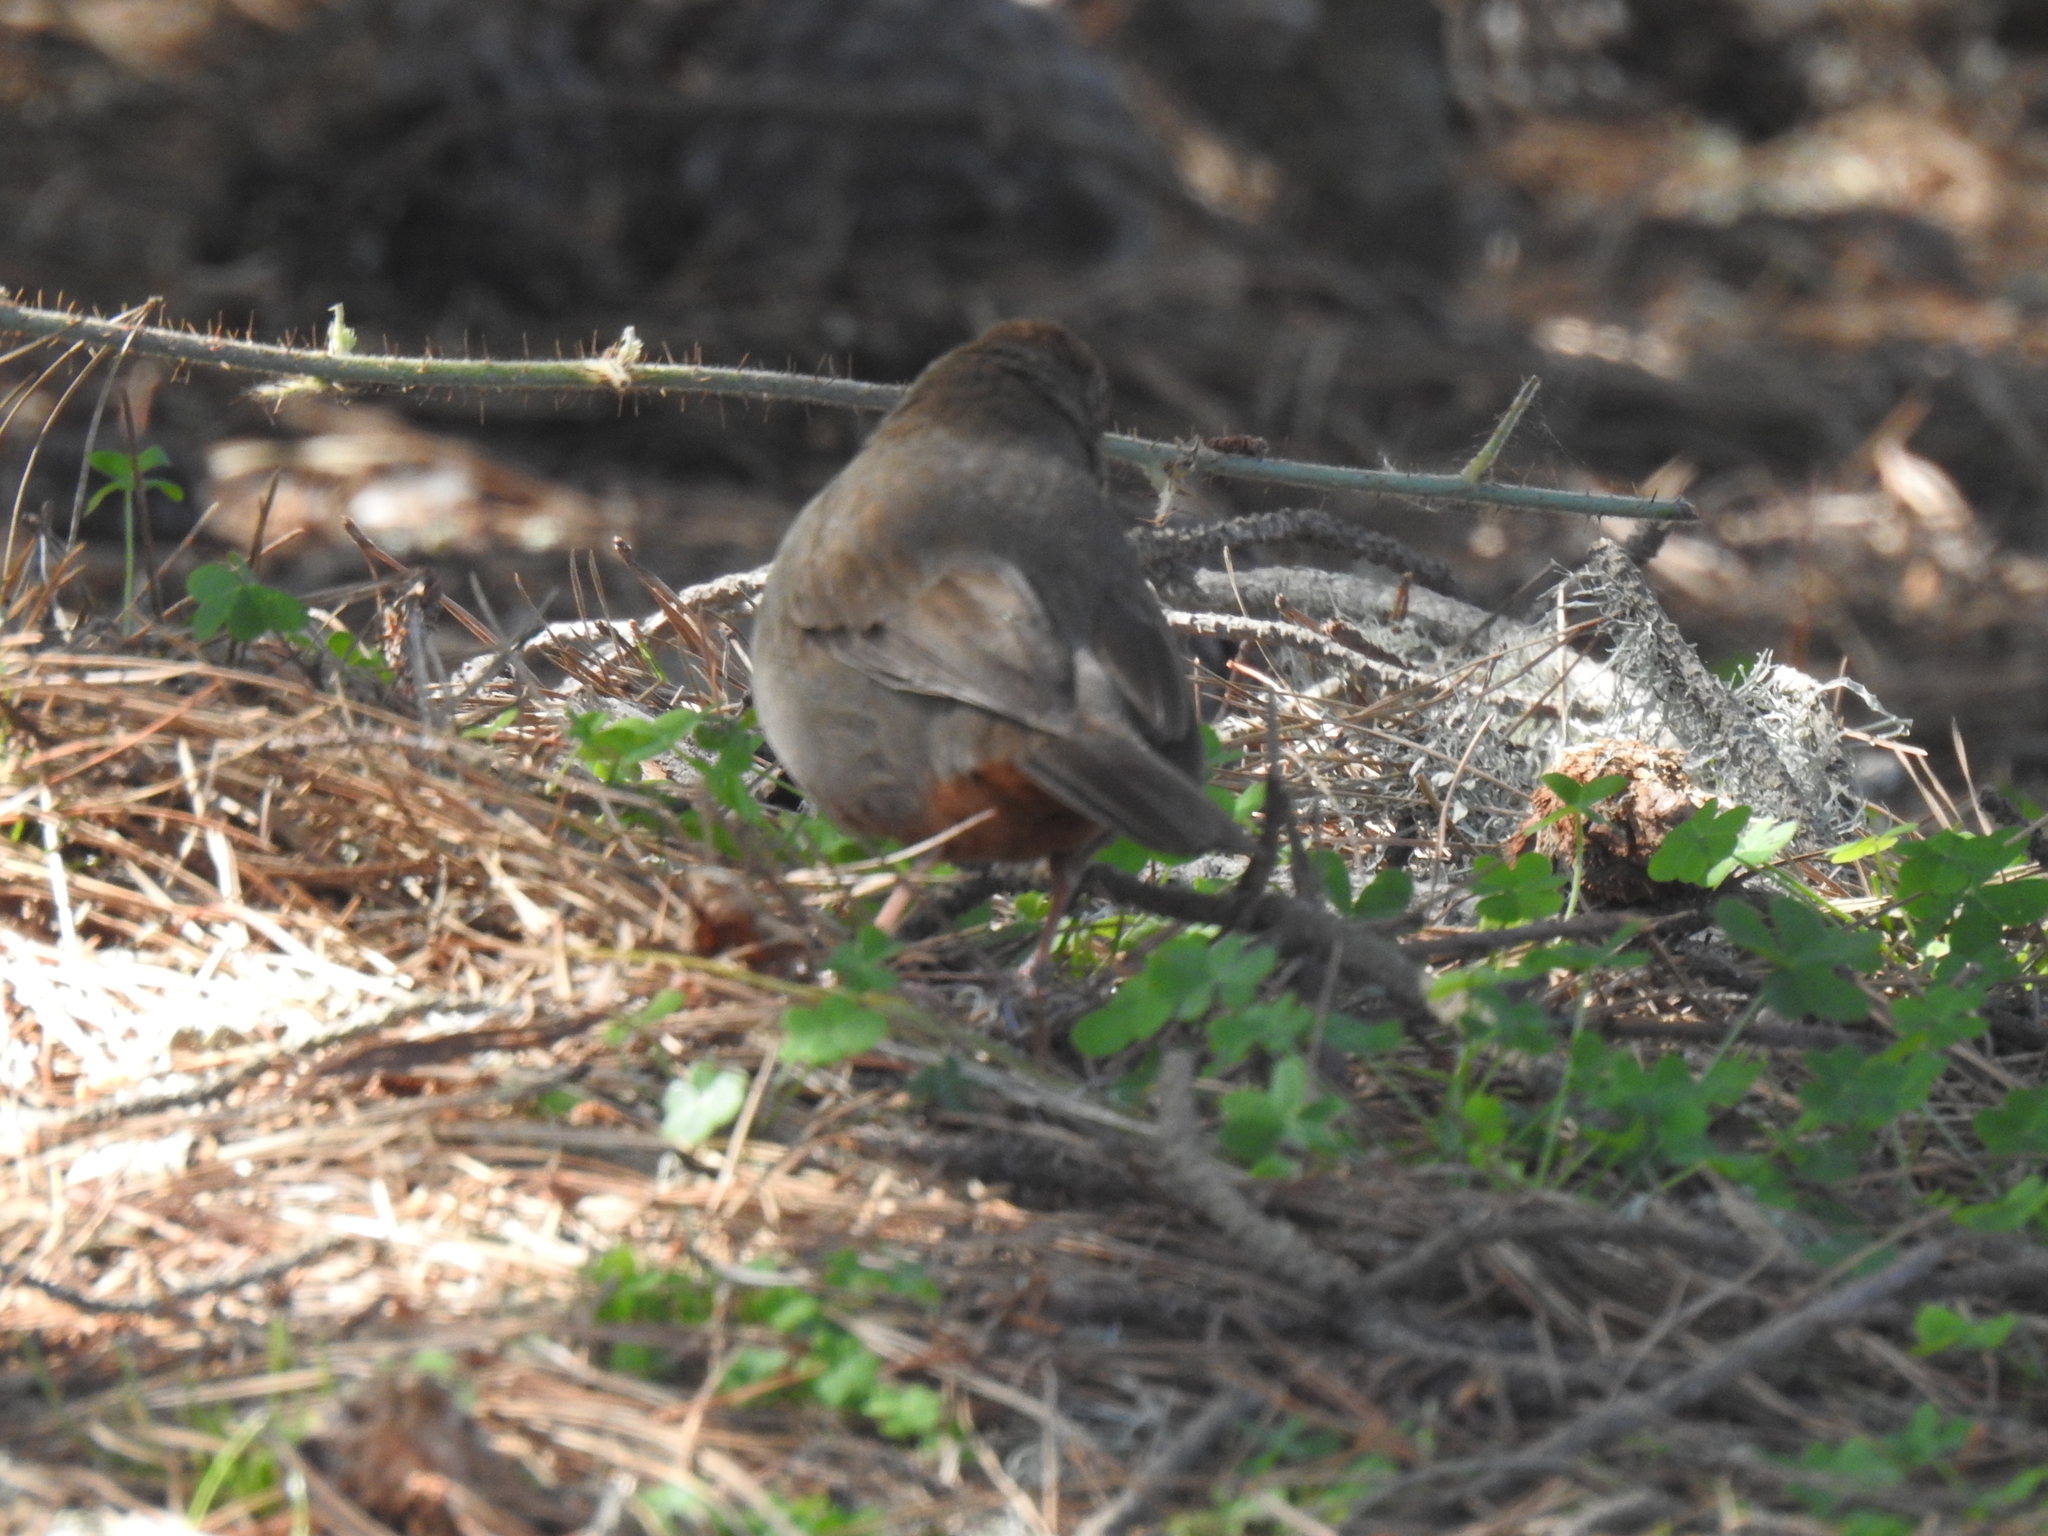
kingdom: Animalia
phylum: Chordata
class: Aves
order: Passeriformes
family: Passerellidae
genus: Melozone
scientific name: Melozone crissalis
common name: California towhee
